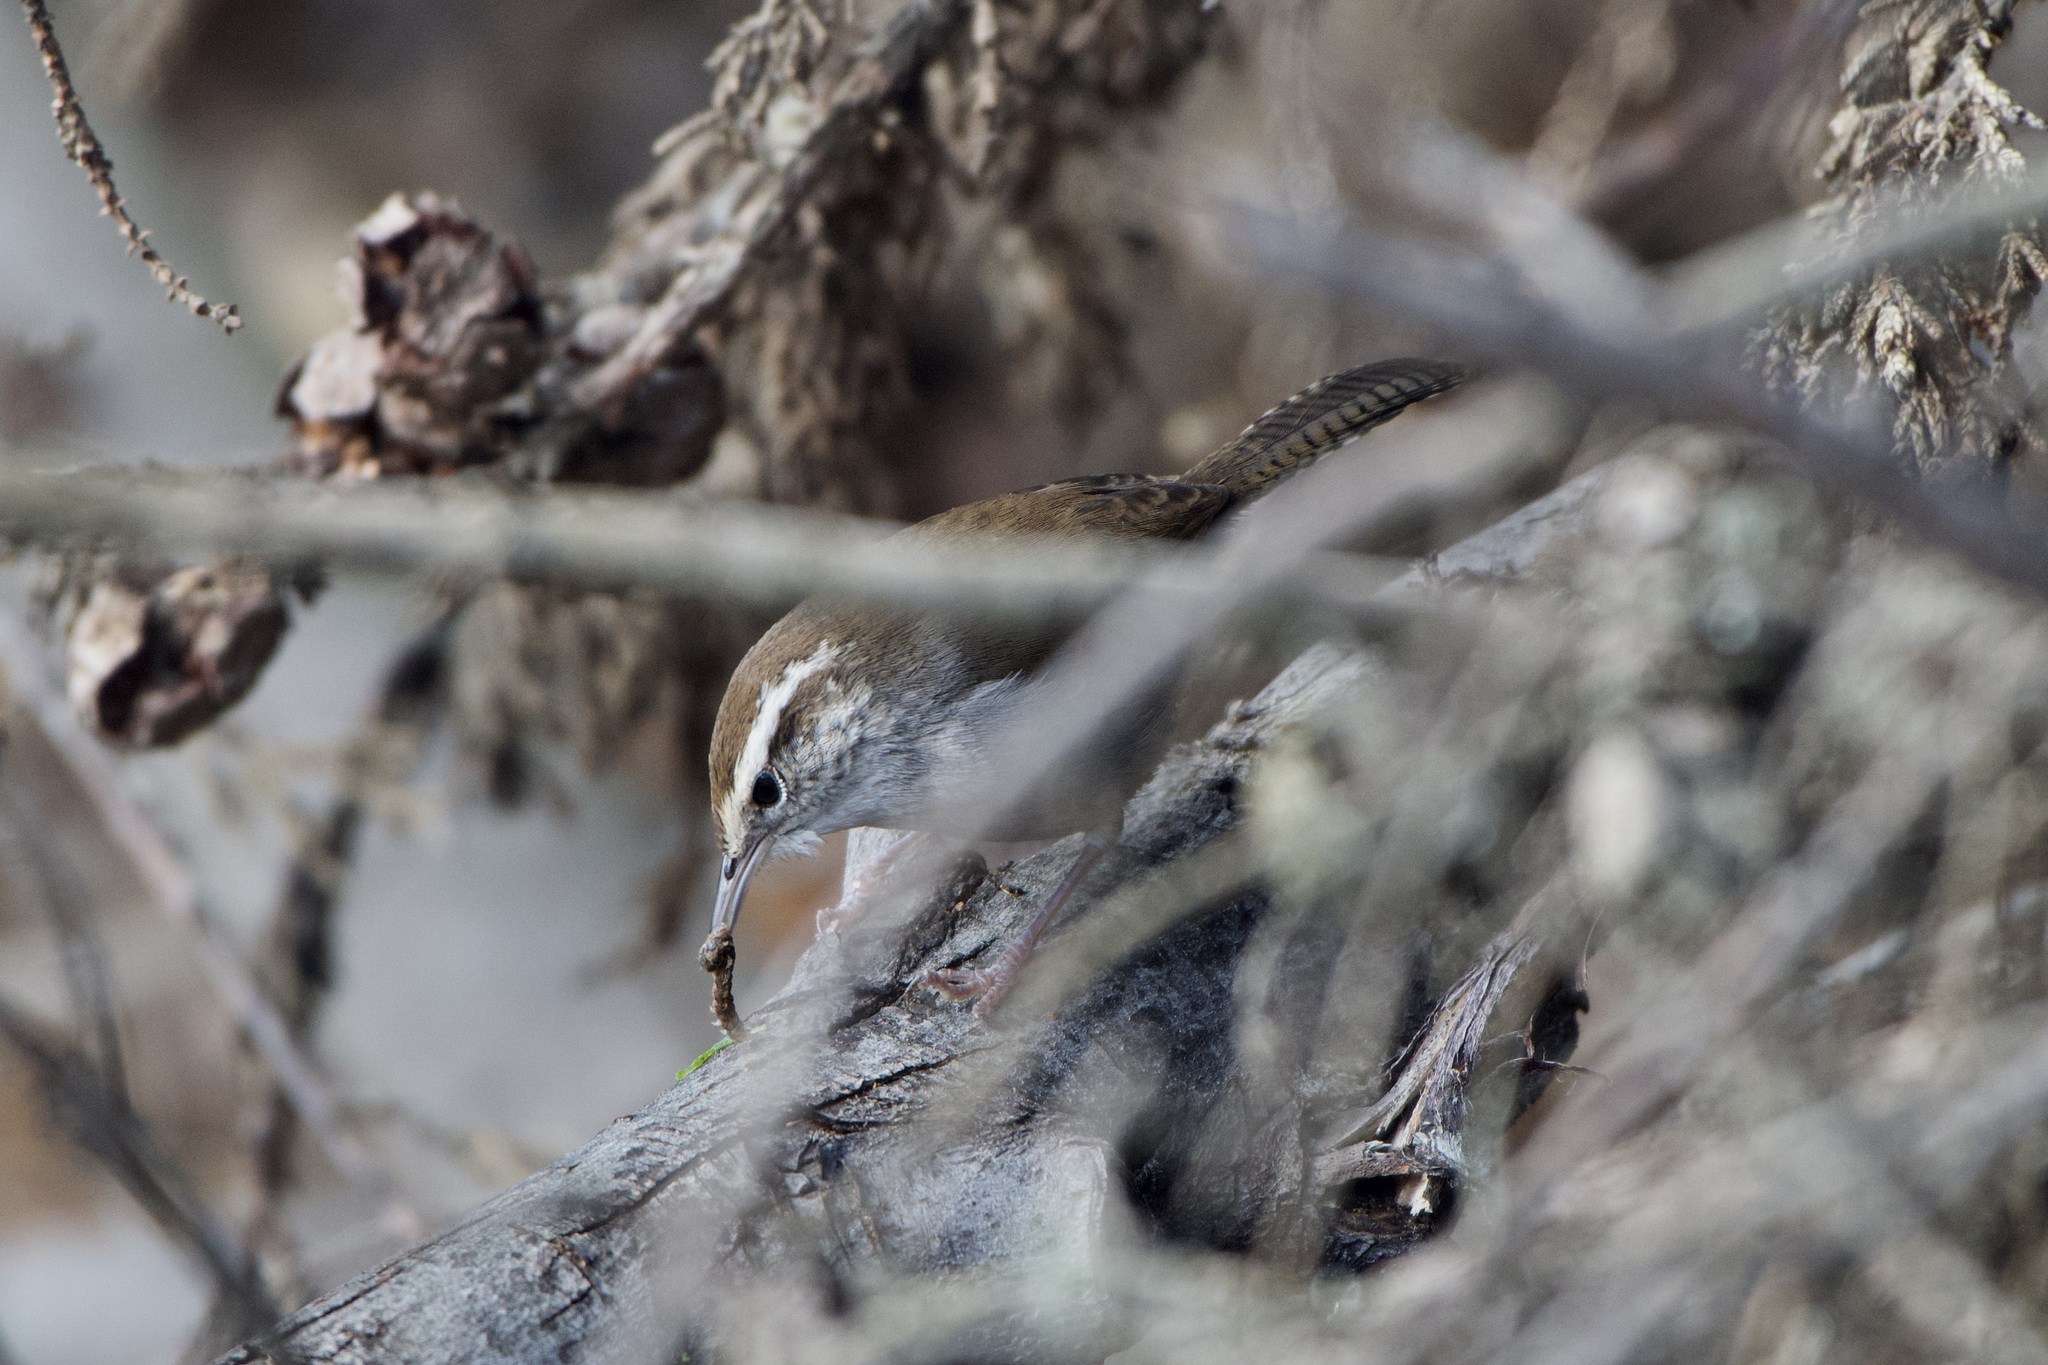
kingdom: Animalia
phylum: Chordata
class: Aves
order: Passeriformes
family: Troglodytidae
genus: Thryomanes
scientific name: Thryomanes bewickii
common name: Bewick's wren
